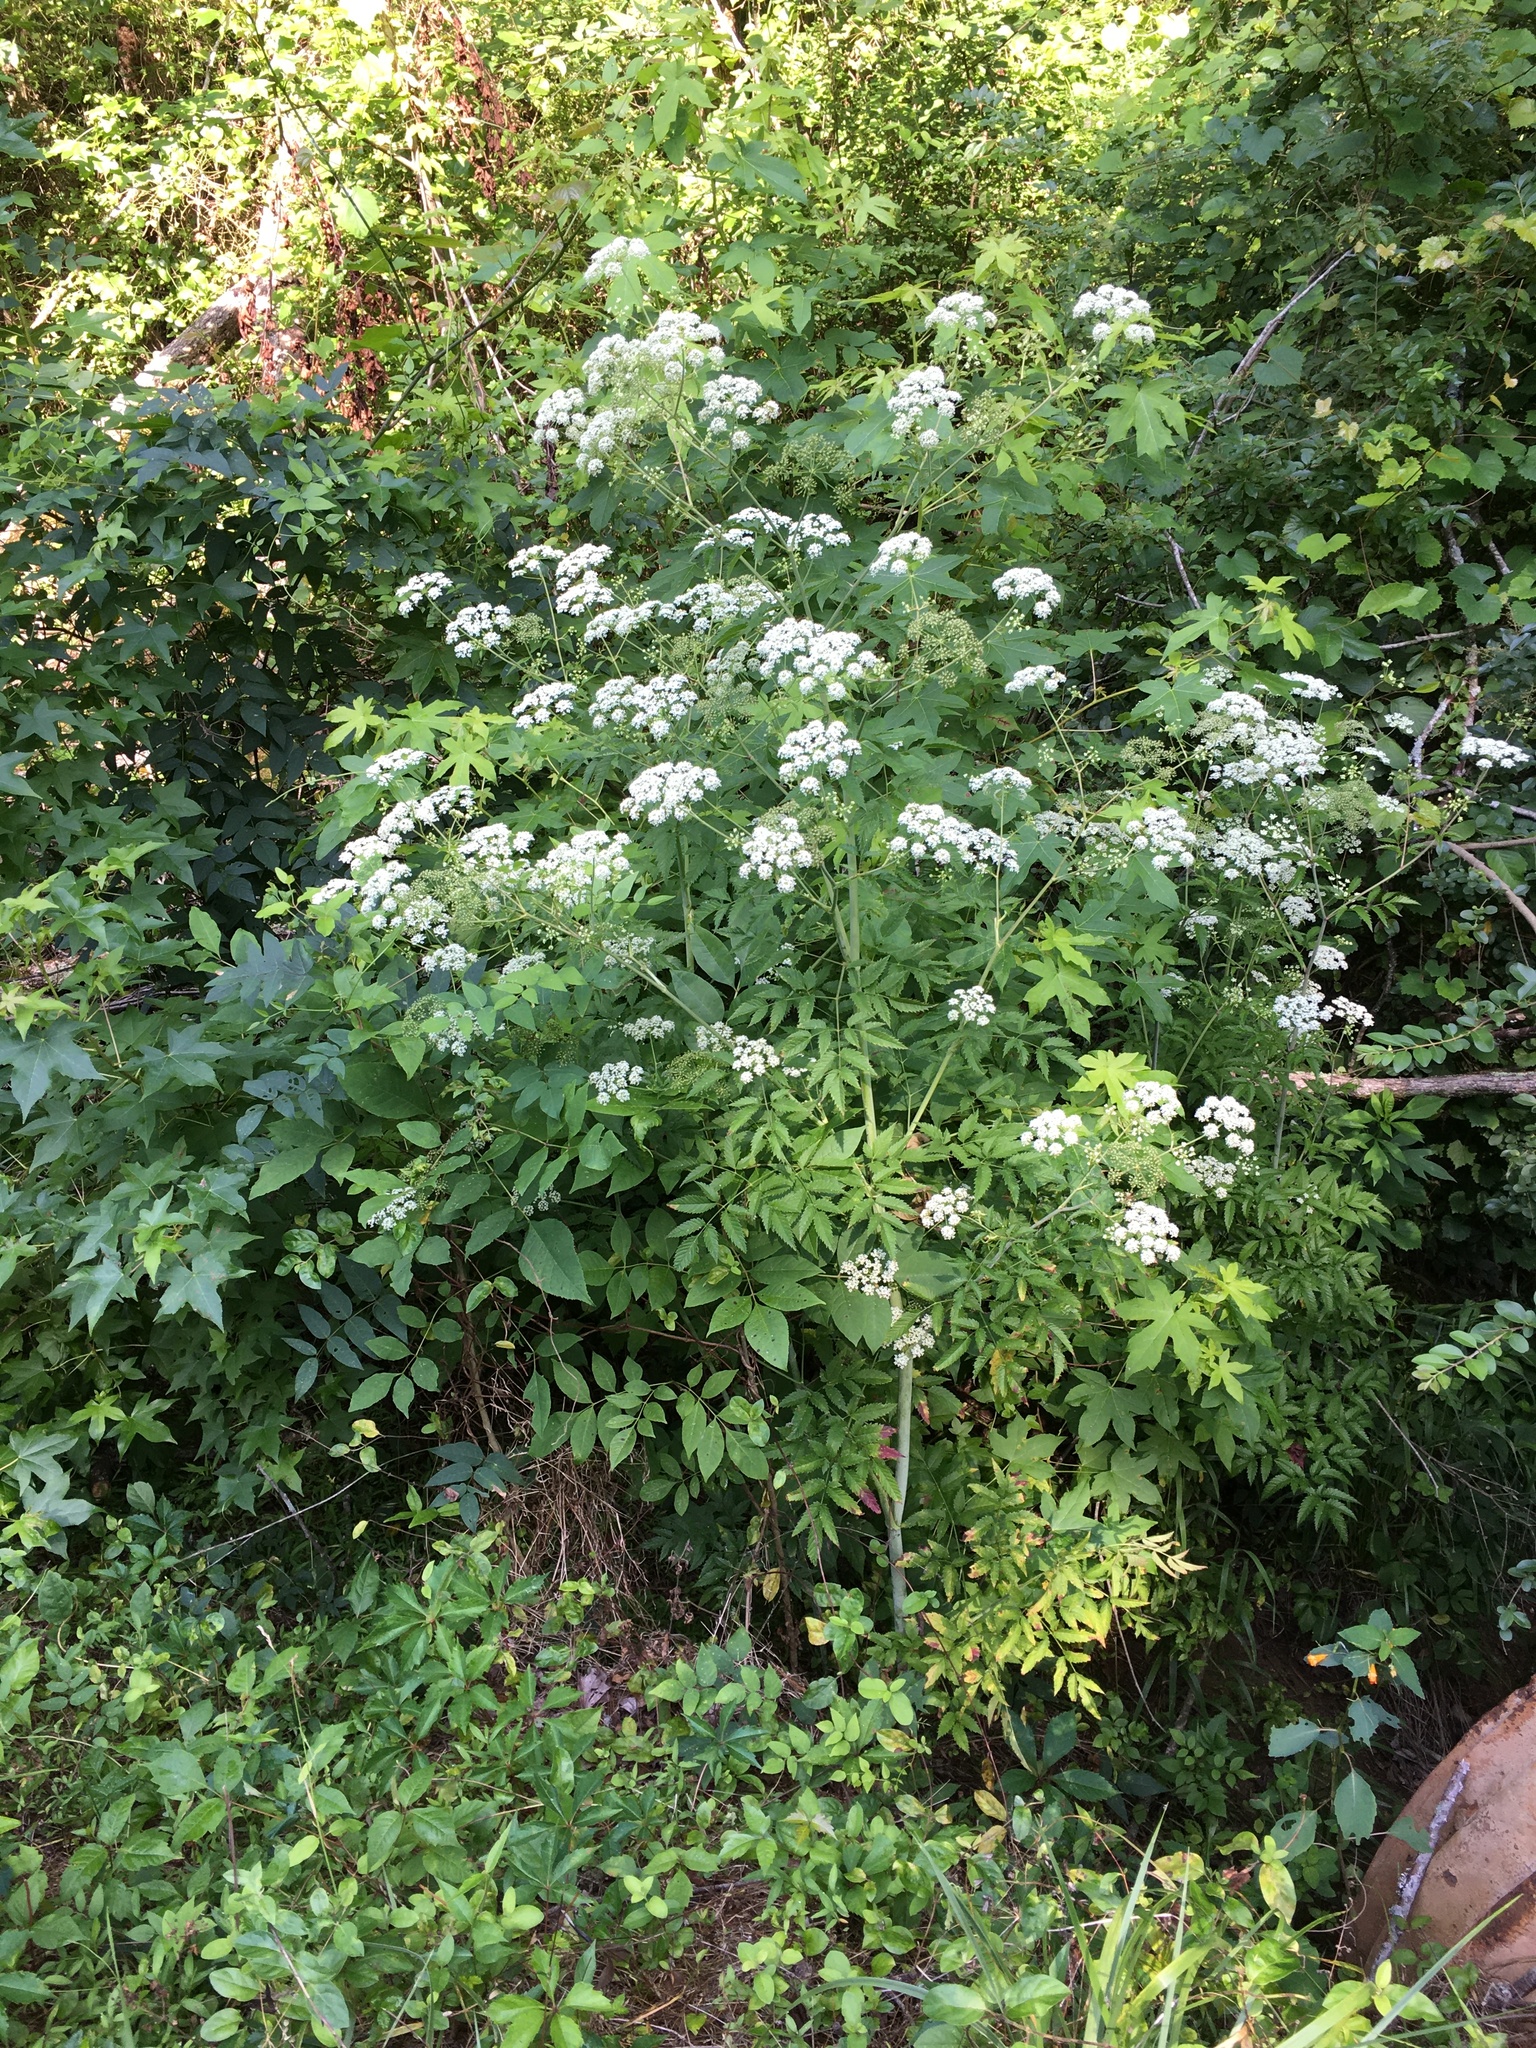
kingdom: Plantae
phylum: Tracheophyta
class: Magnoliopsida
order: Apiales
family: Apiaceae
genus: Cicuta
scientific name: Cicuta maculata
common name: Spotted cowbane
